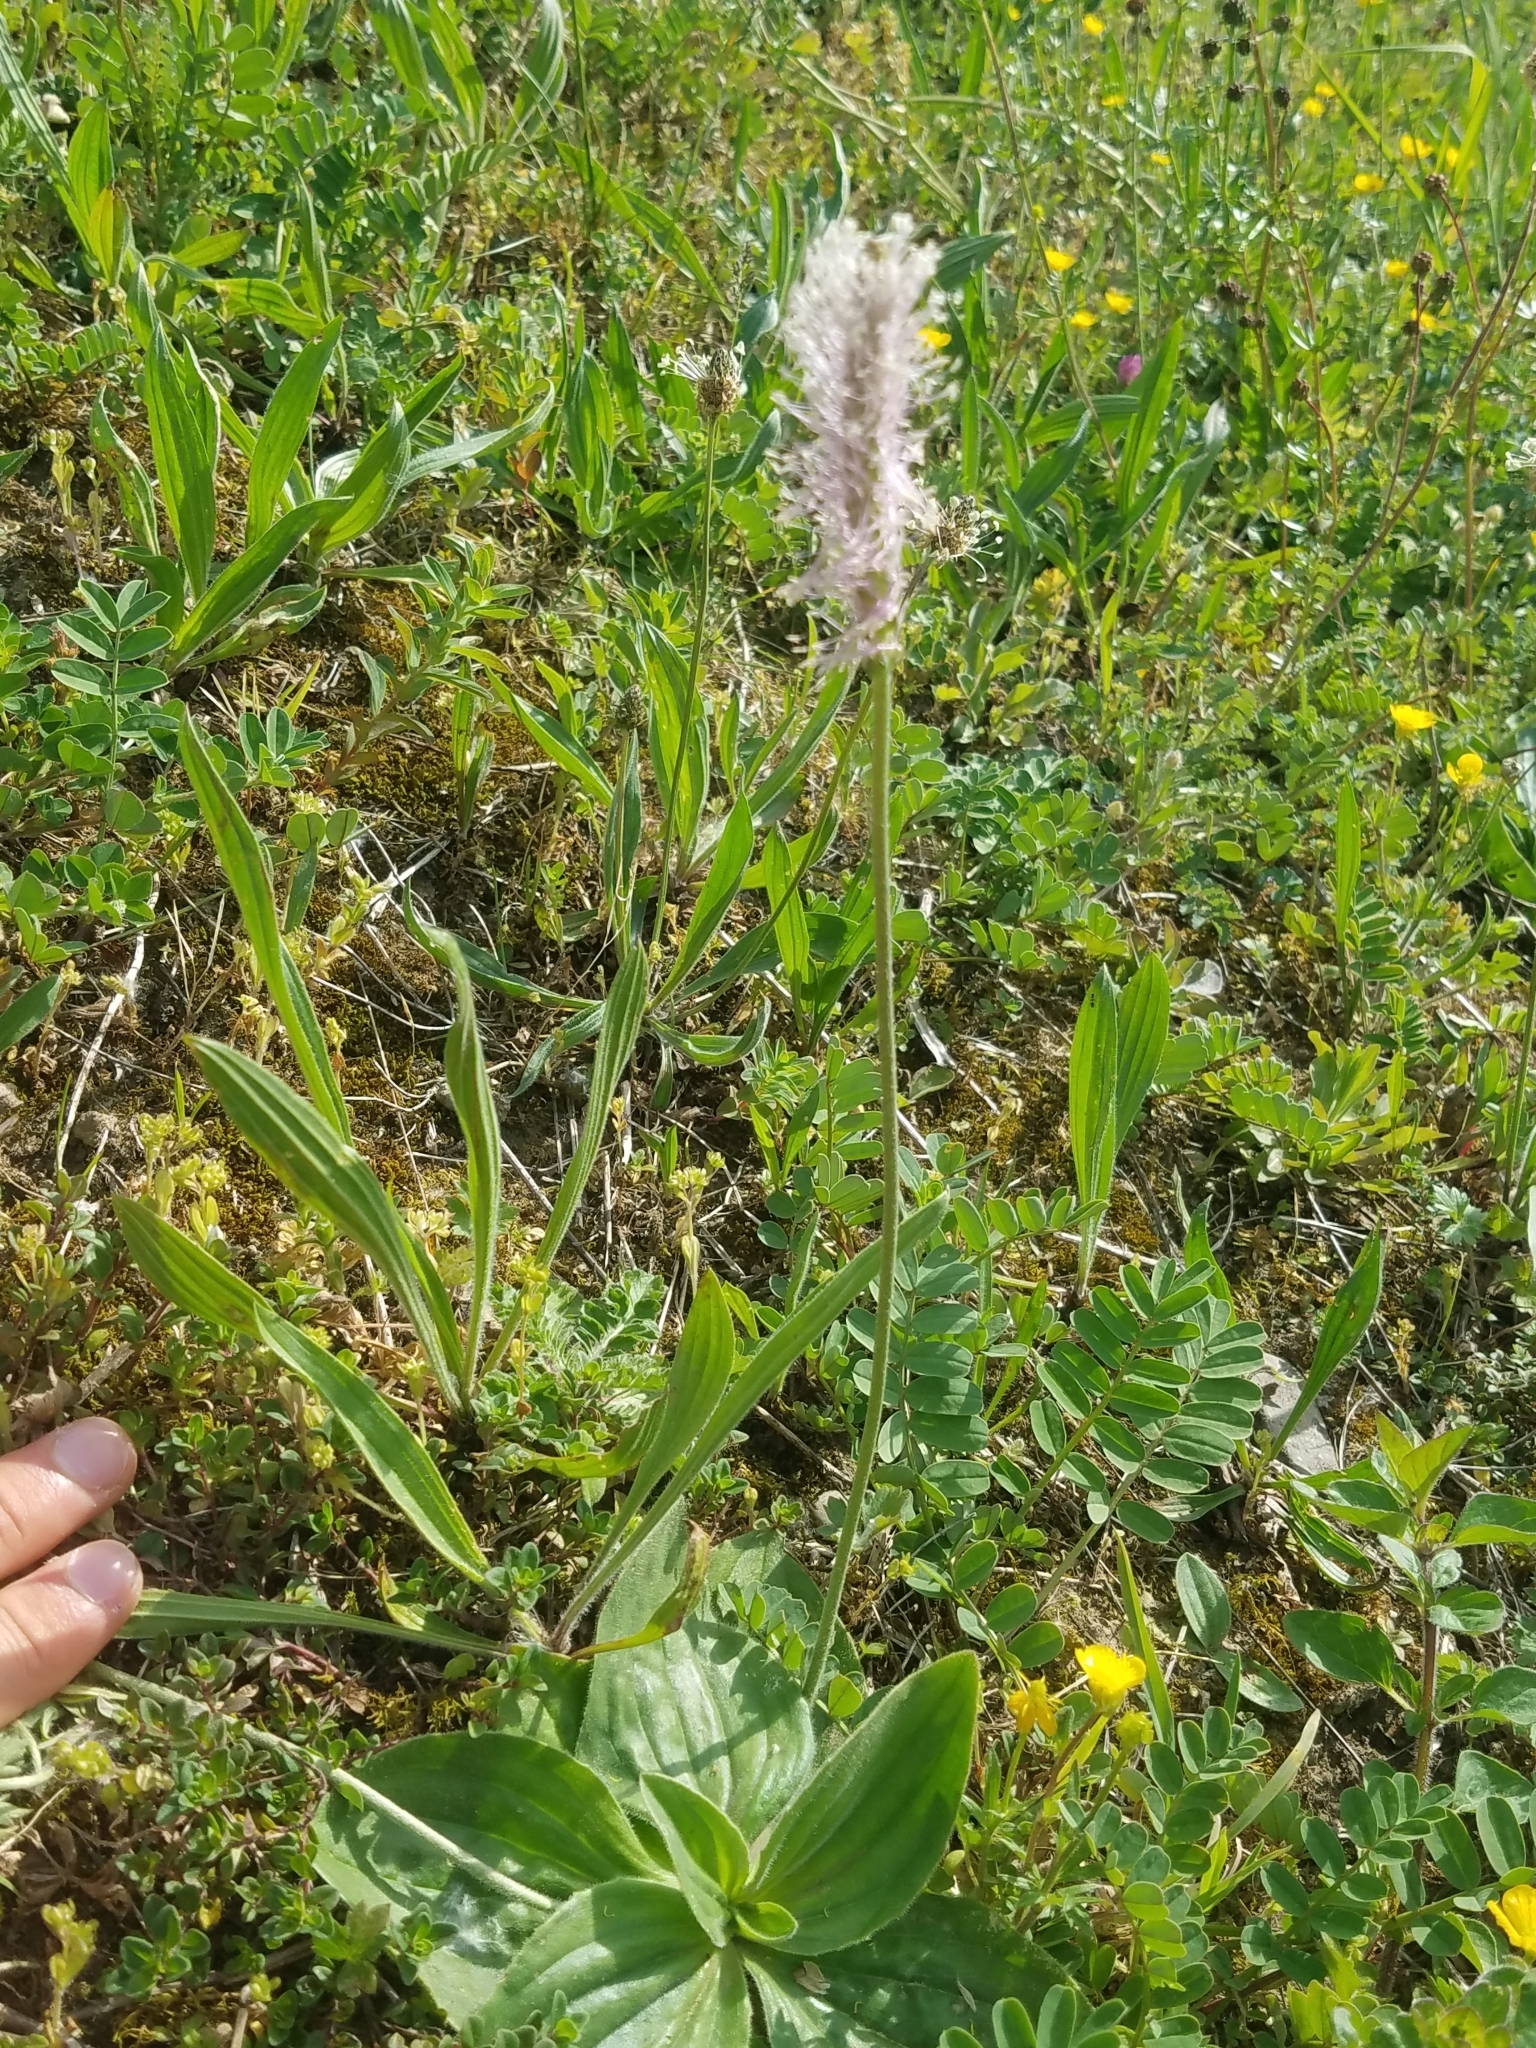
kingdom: Plantae
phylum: Tracheophyta
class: Magnoliopsida
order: Lamiales
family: Plantaginaceae
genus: Plantago
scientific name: Plantago media
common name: Hoary plantain
